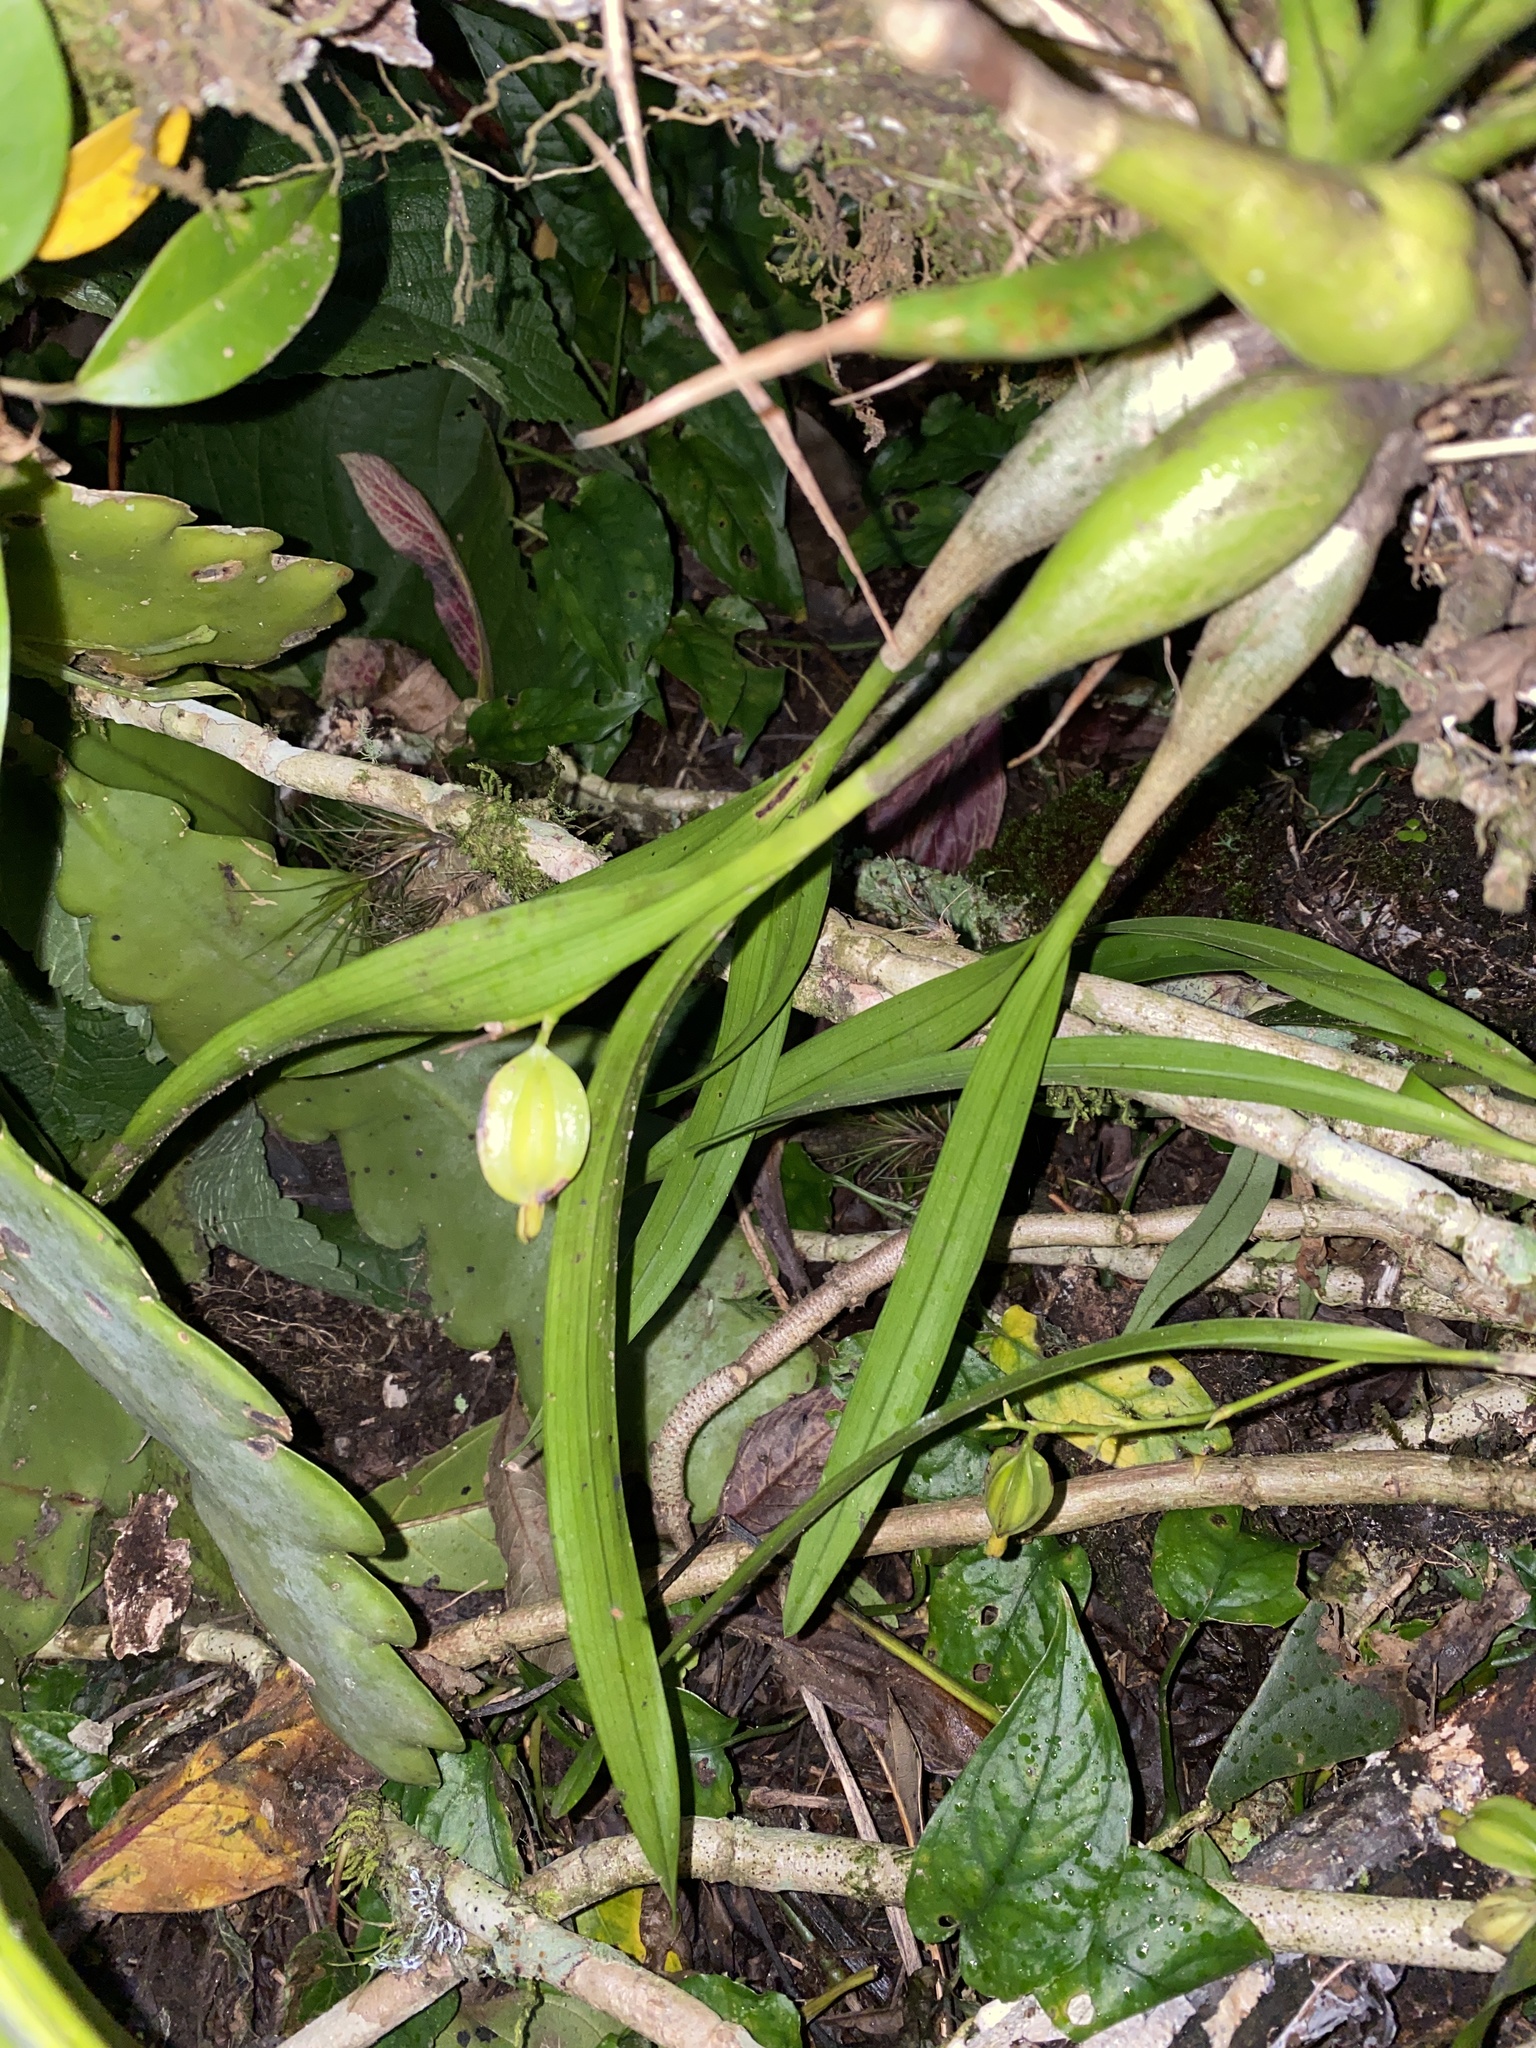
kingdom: Plantae
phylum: Tracheophyta
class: Liliopsida
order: Asparagales
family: Orchidaceae
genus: Prosthechea
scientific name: Prosthechea ochracea
